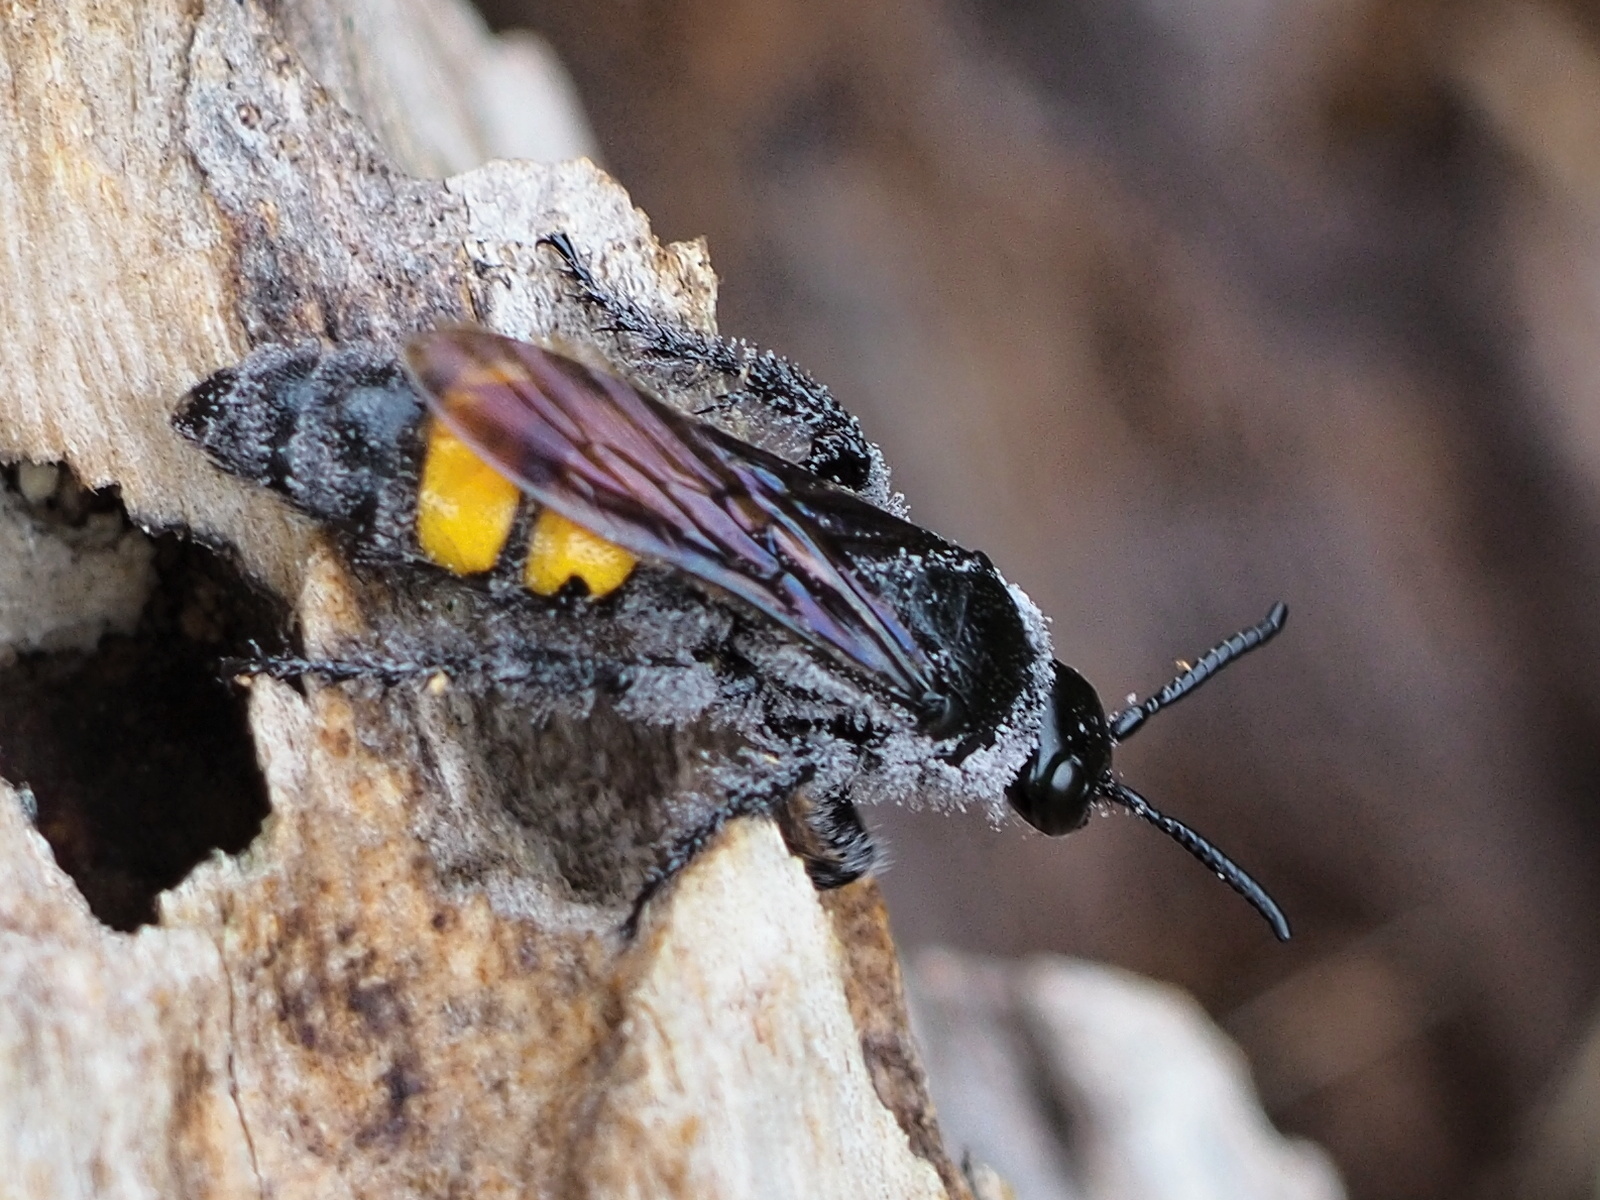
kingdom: Animalia
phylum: Arthropoda
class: Insecta
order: Hymenoptera
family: Scoliidae
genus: Scolia
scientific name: Scolia hirta
